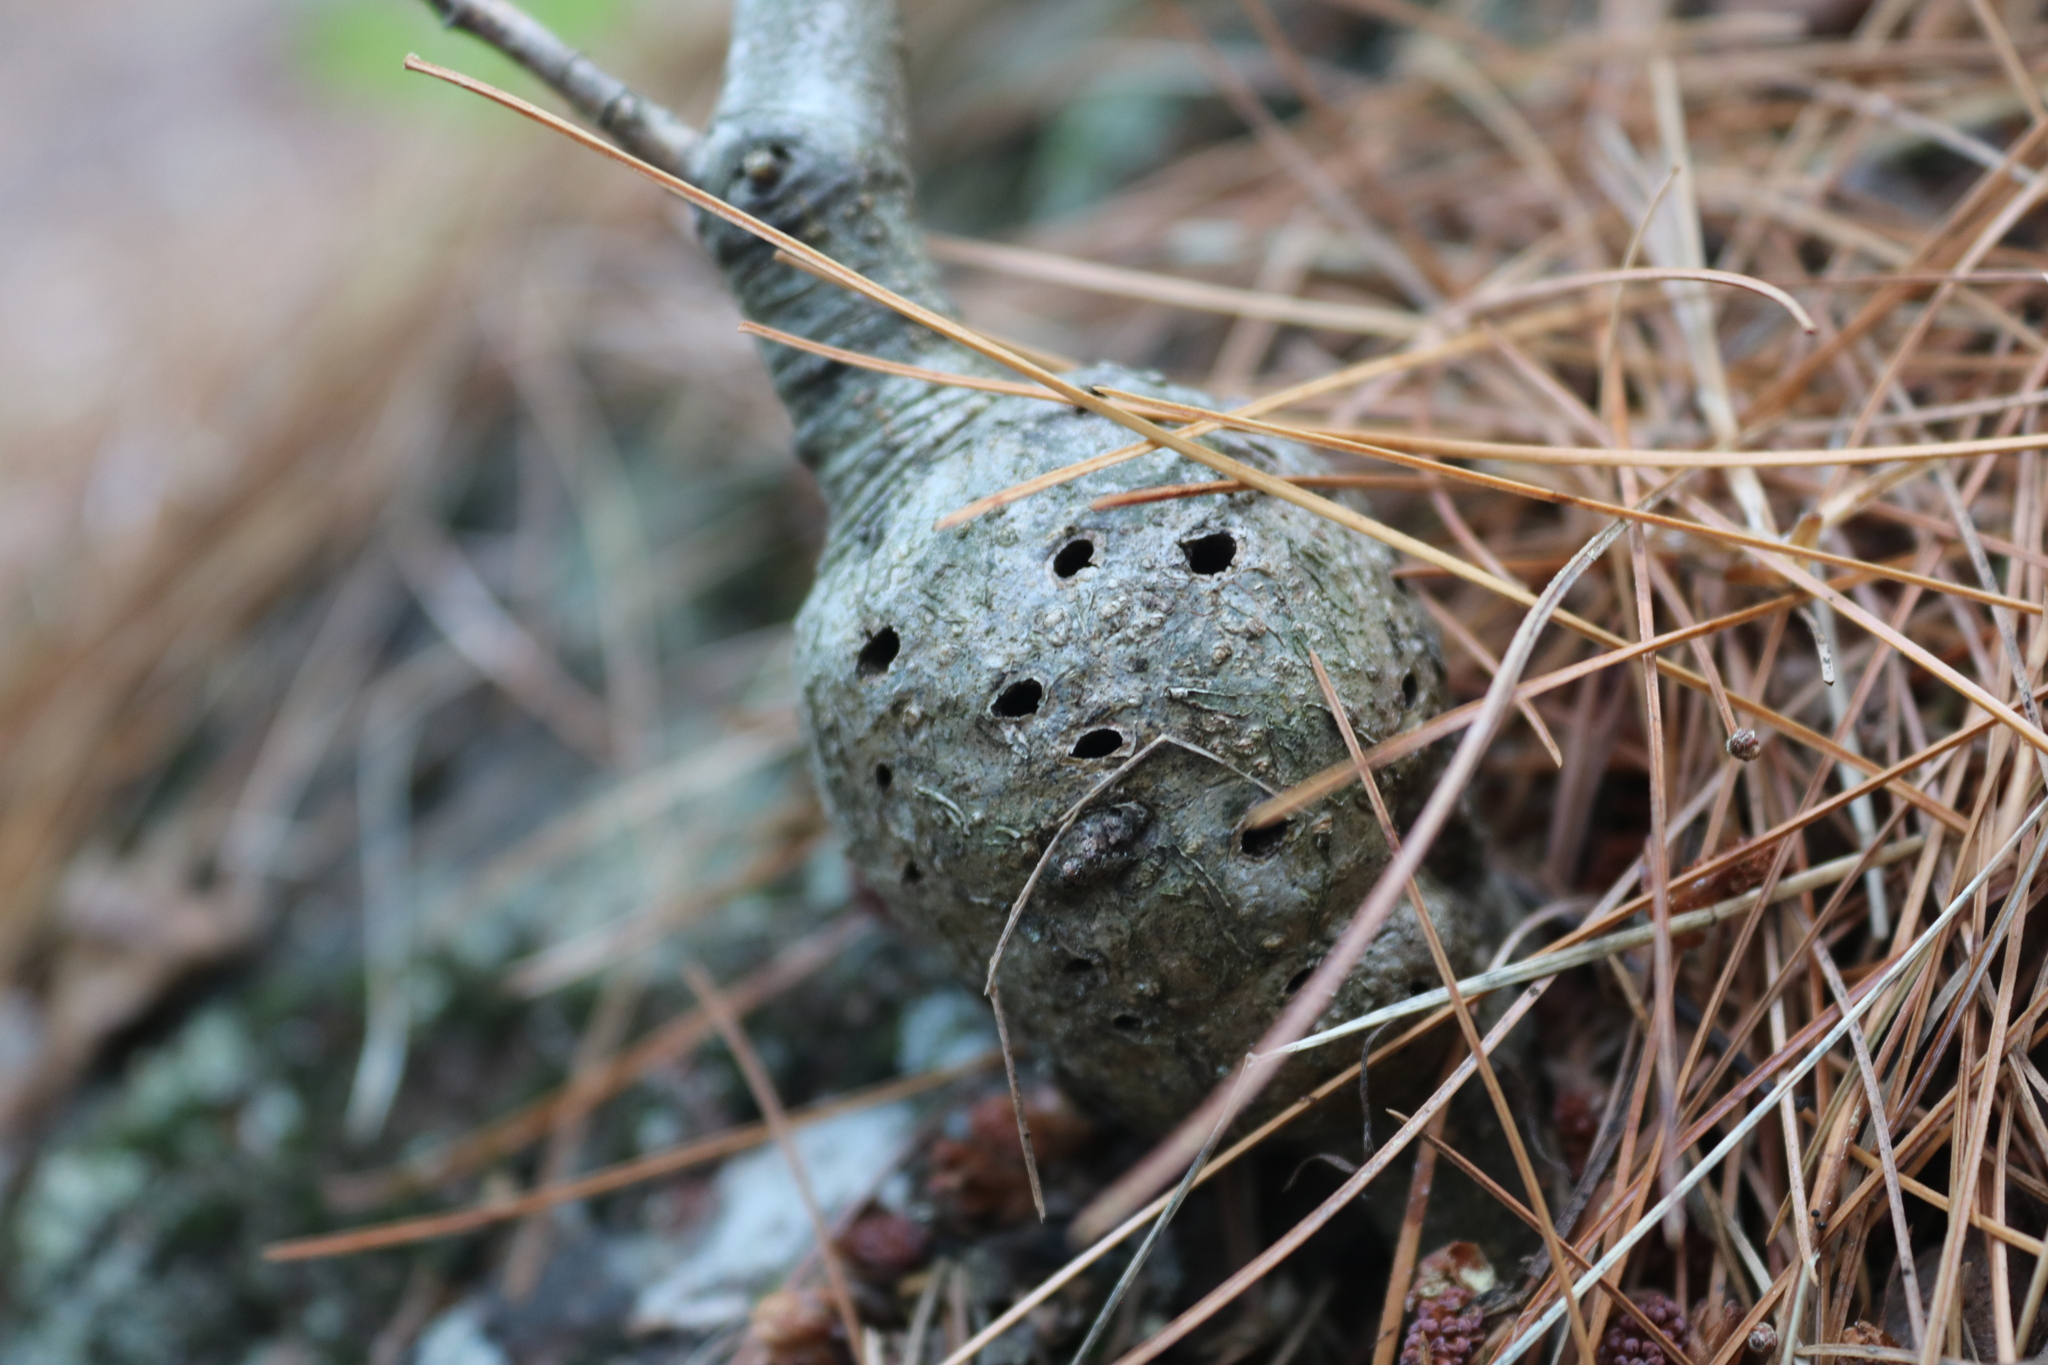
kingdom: Animalia
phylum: Arthropoda
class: Insecta
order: Hymenoptera
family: Cynipidae
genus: Callirhytis
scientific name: Callirhytis
